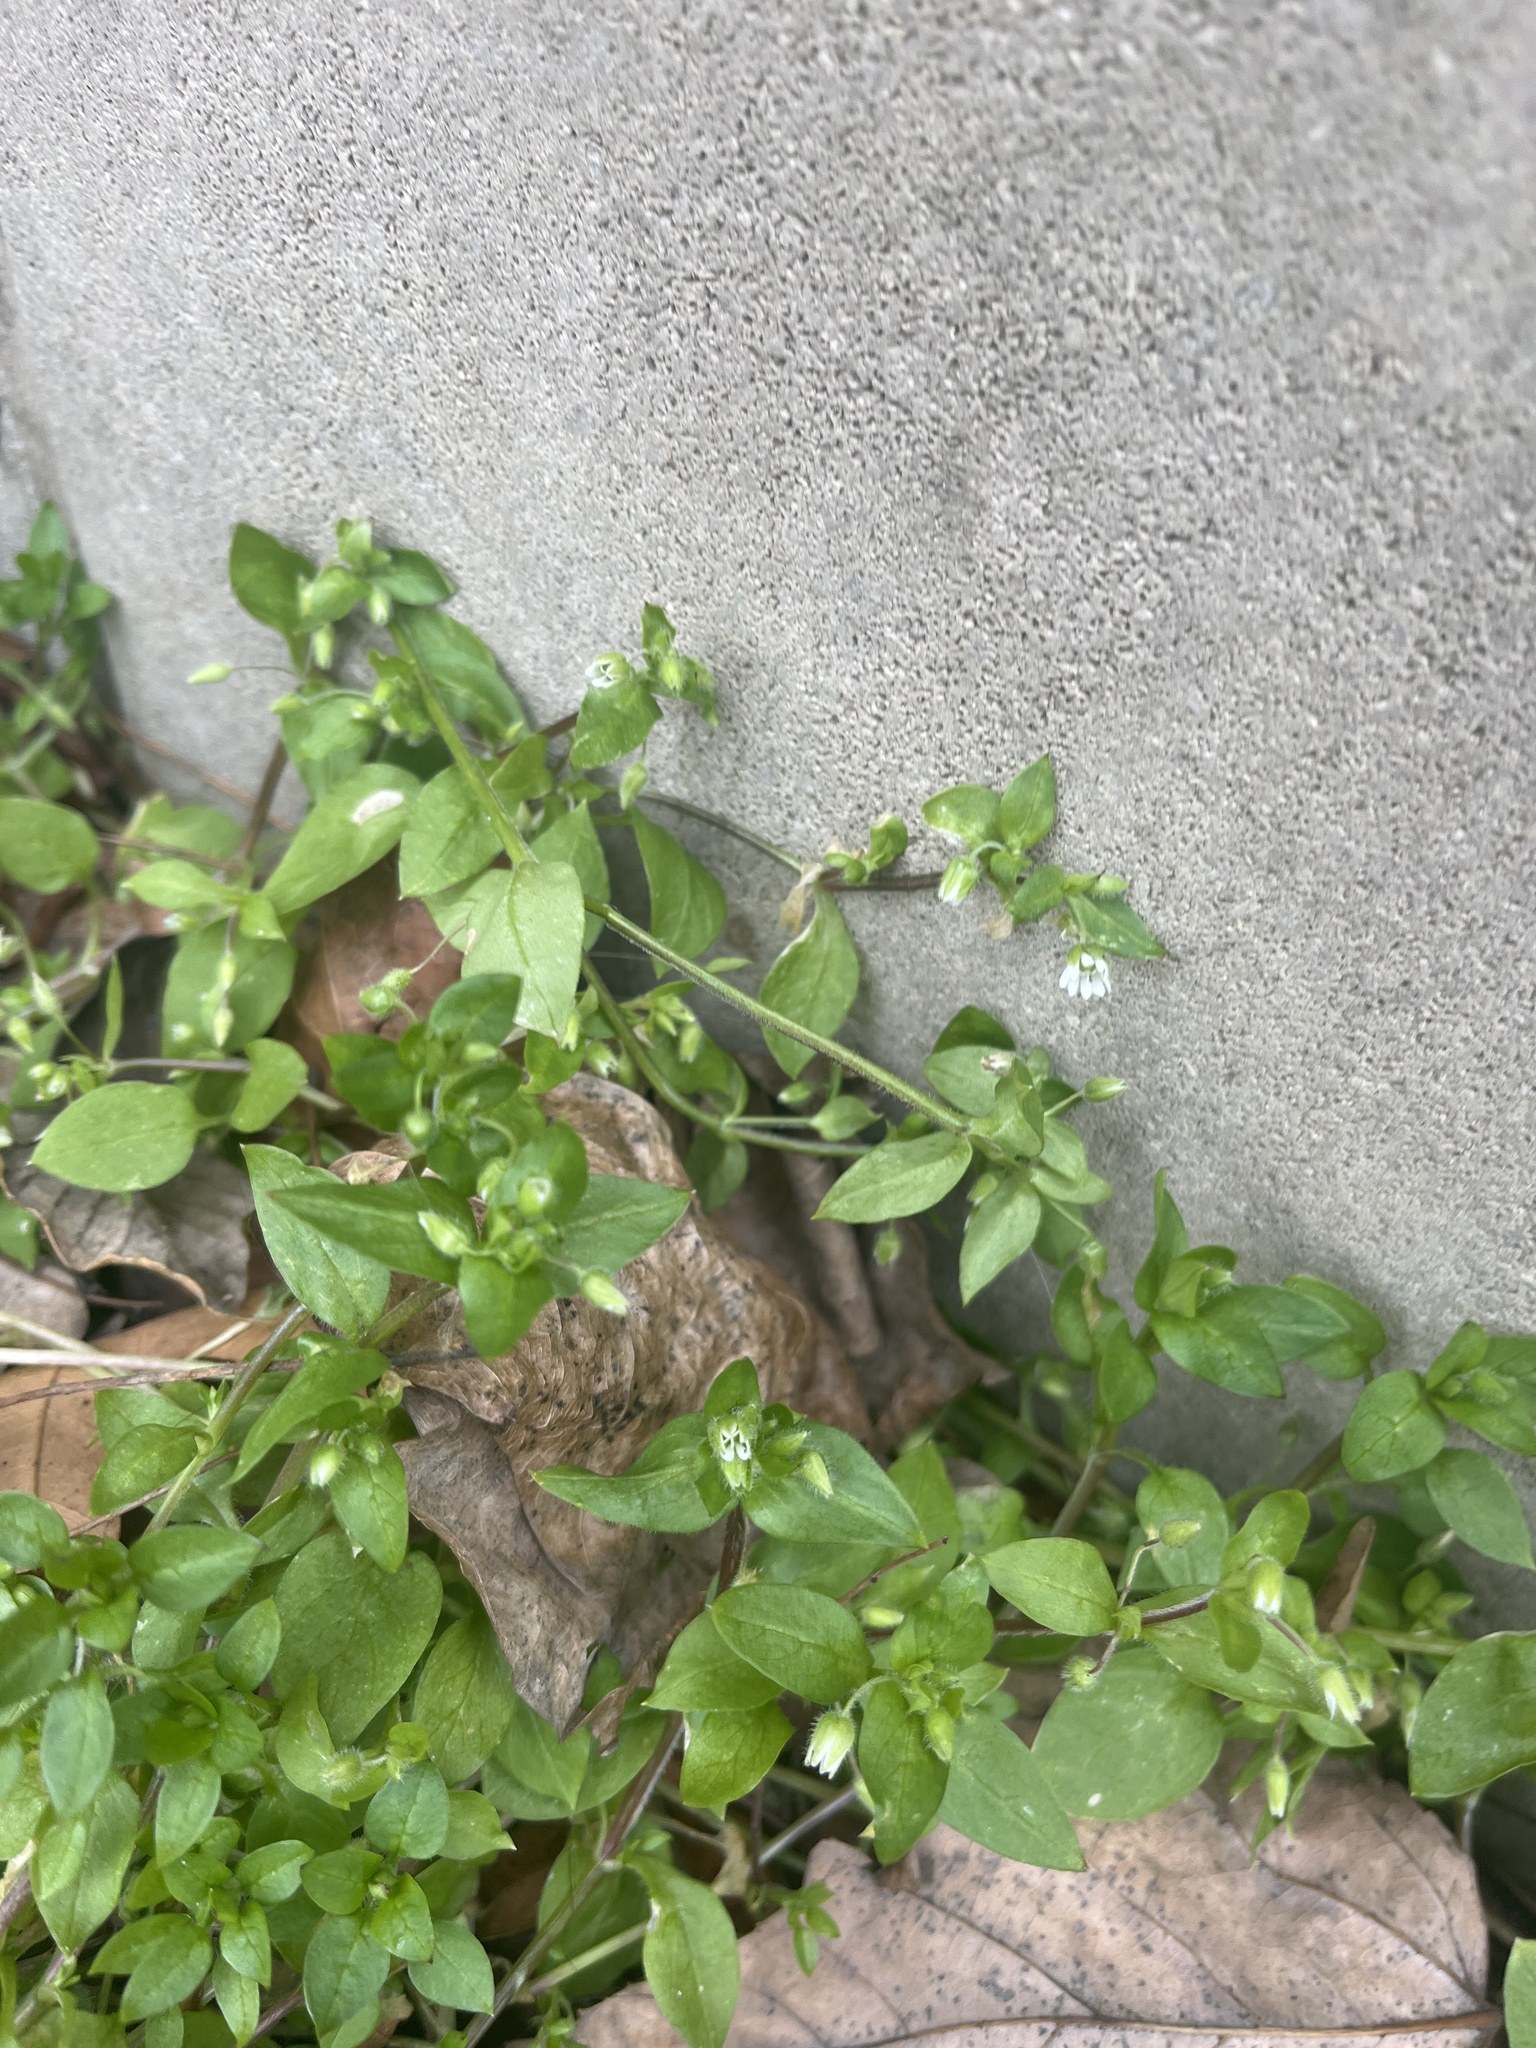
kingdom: Plantae
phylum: Tracheophyta
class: Magnoliopsida
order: Caryophyllales
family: Caryophyllaceae
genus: Stellaria
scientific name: Stellaria media
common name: Common chickweed
